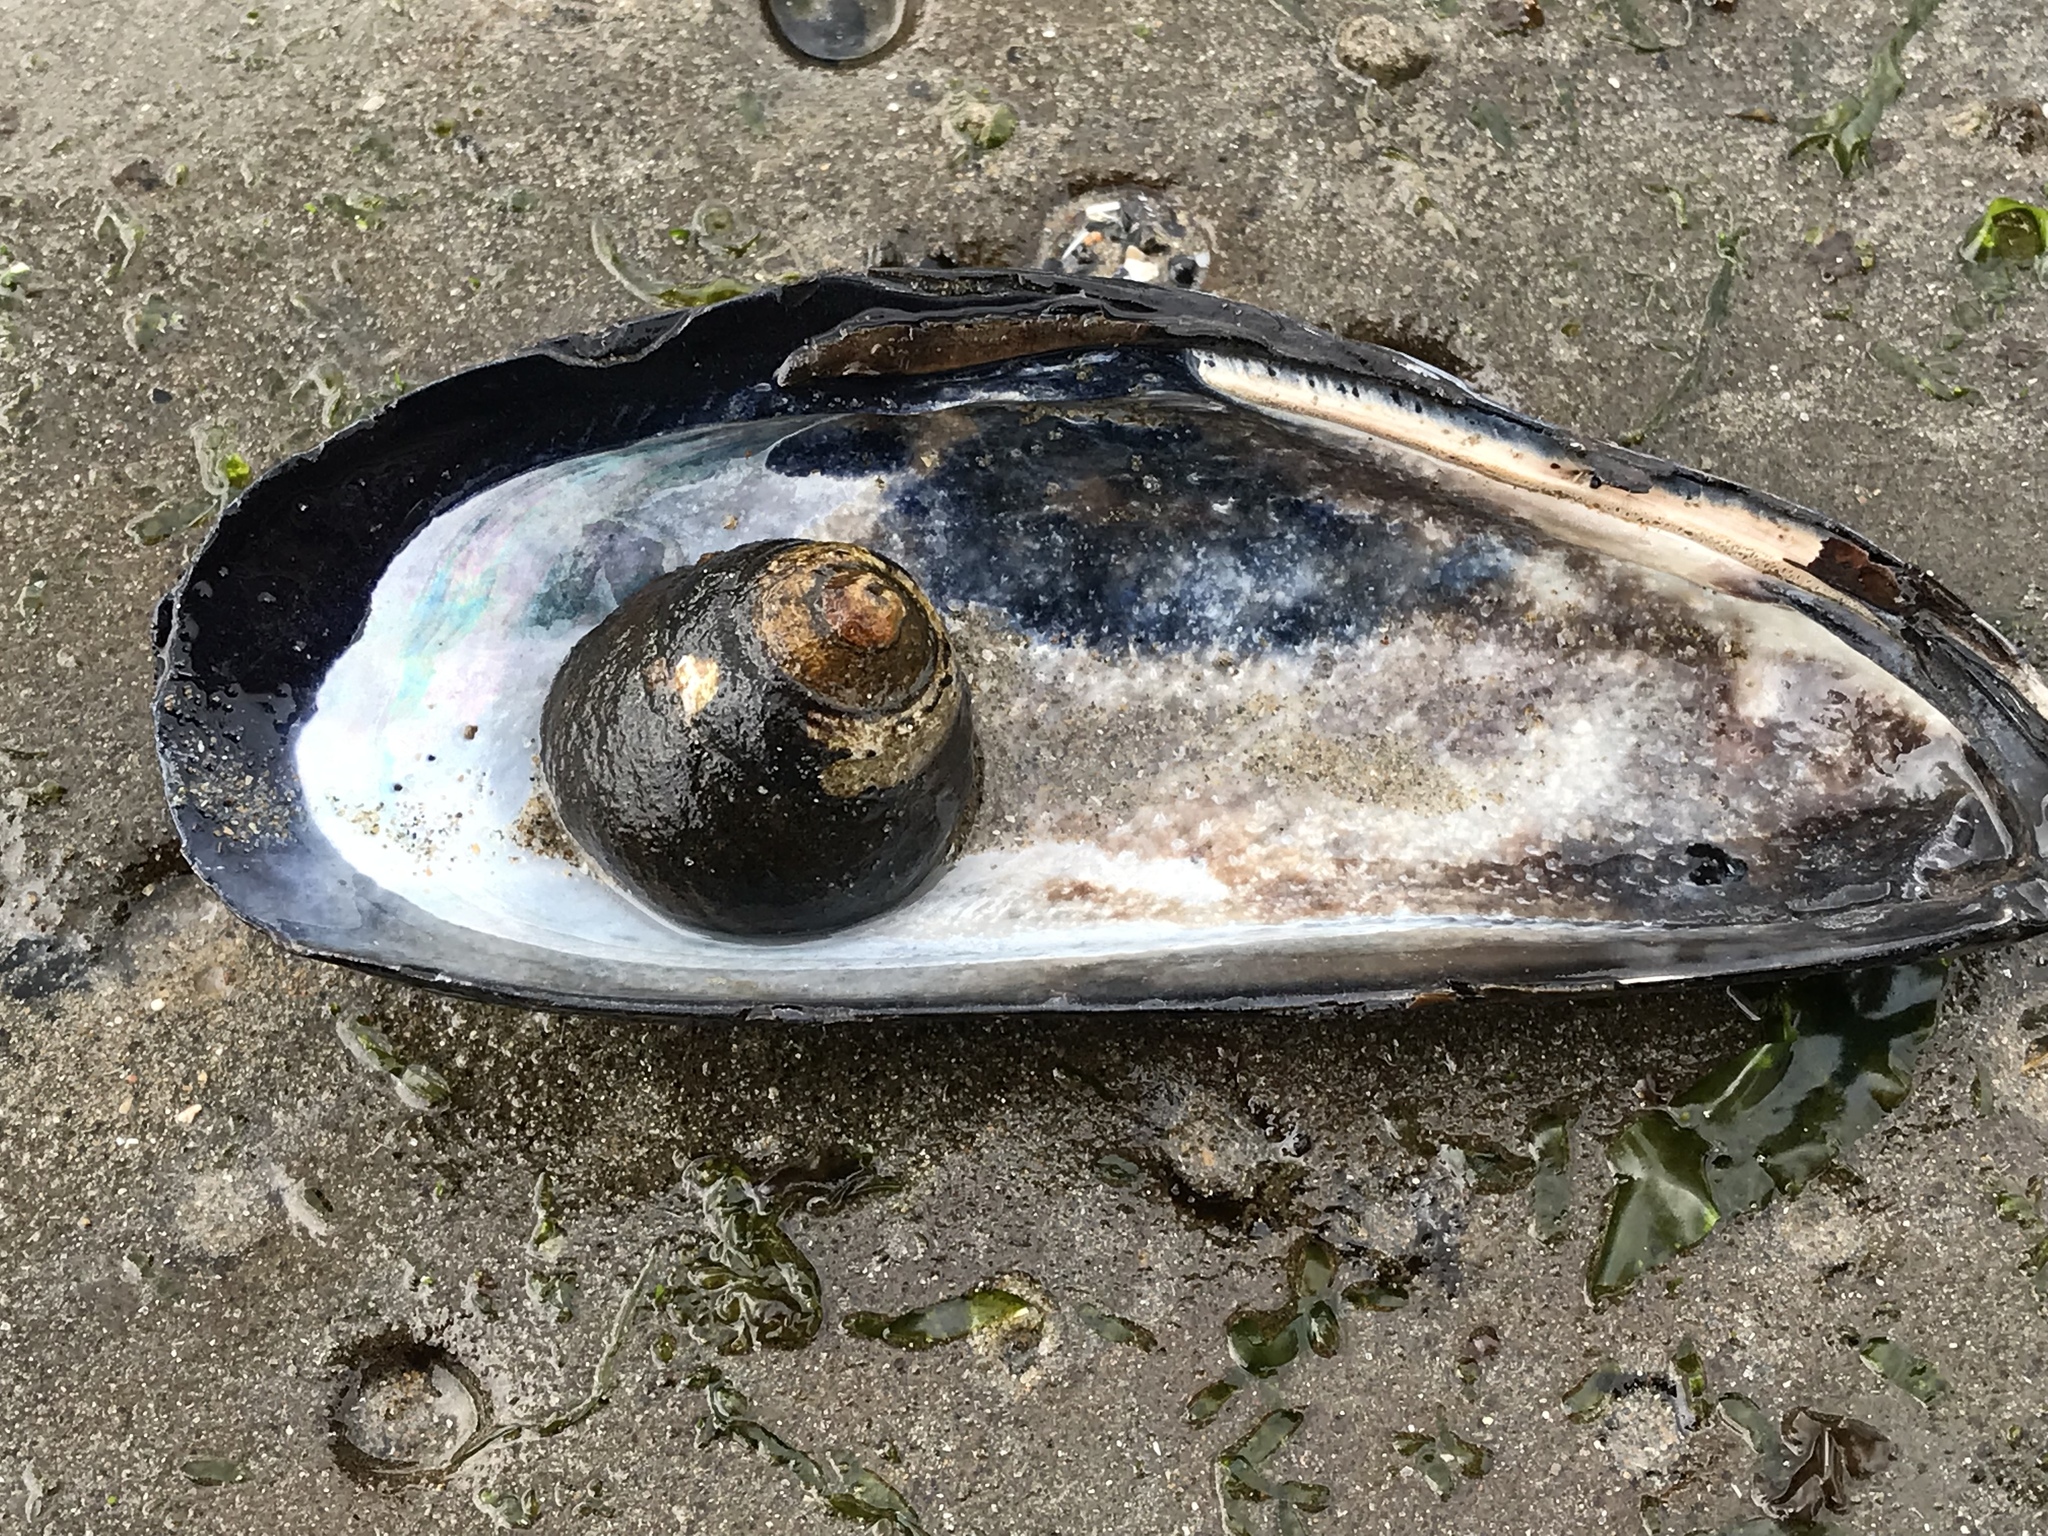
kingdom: Animalia
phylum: Mollusca
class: Gastropoda
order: Trochida
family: Tegulidae
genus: Tegula
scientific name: Tegula funebralis
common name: Black tegula
